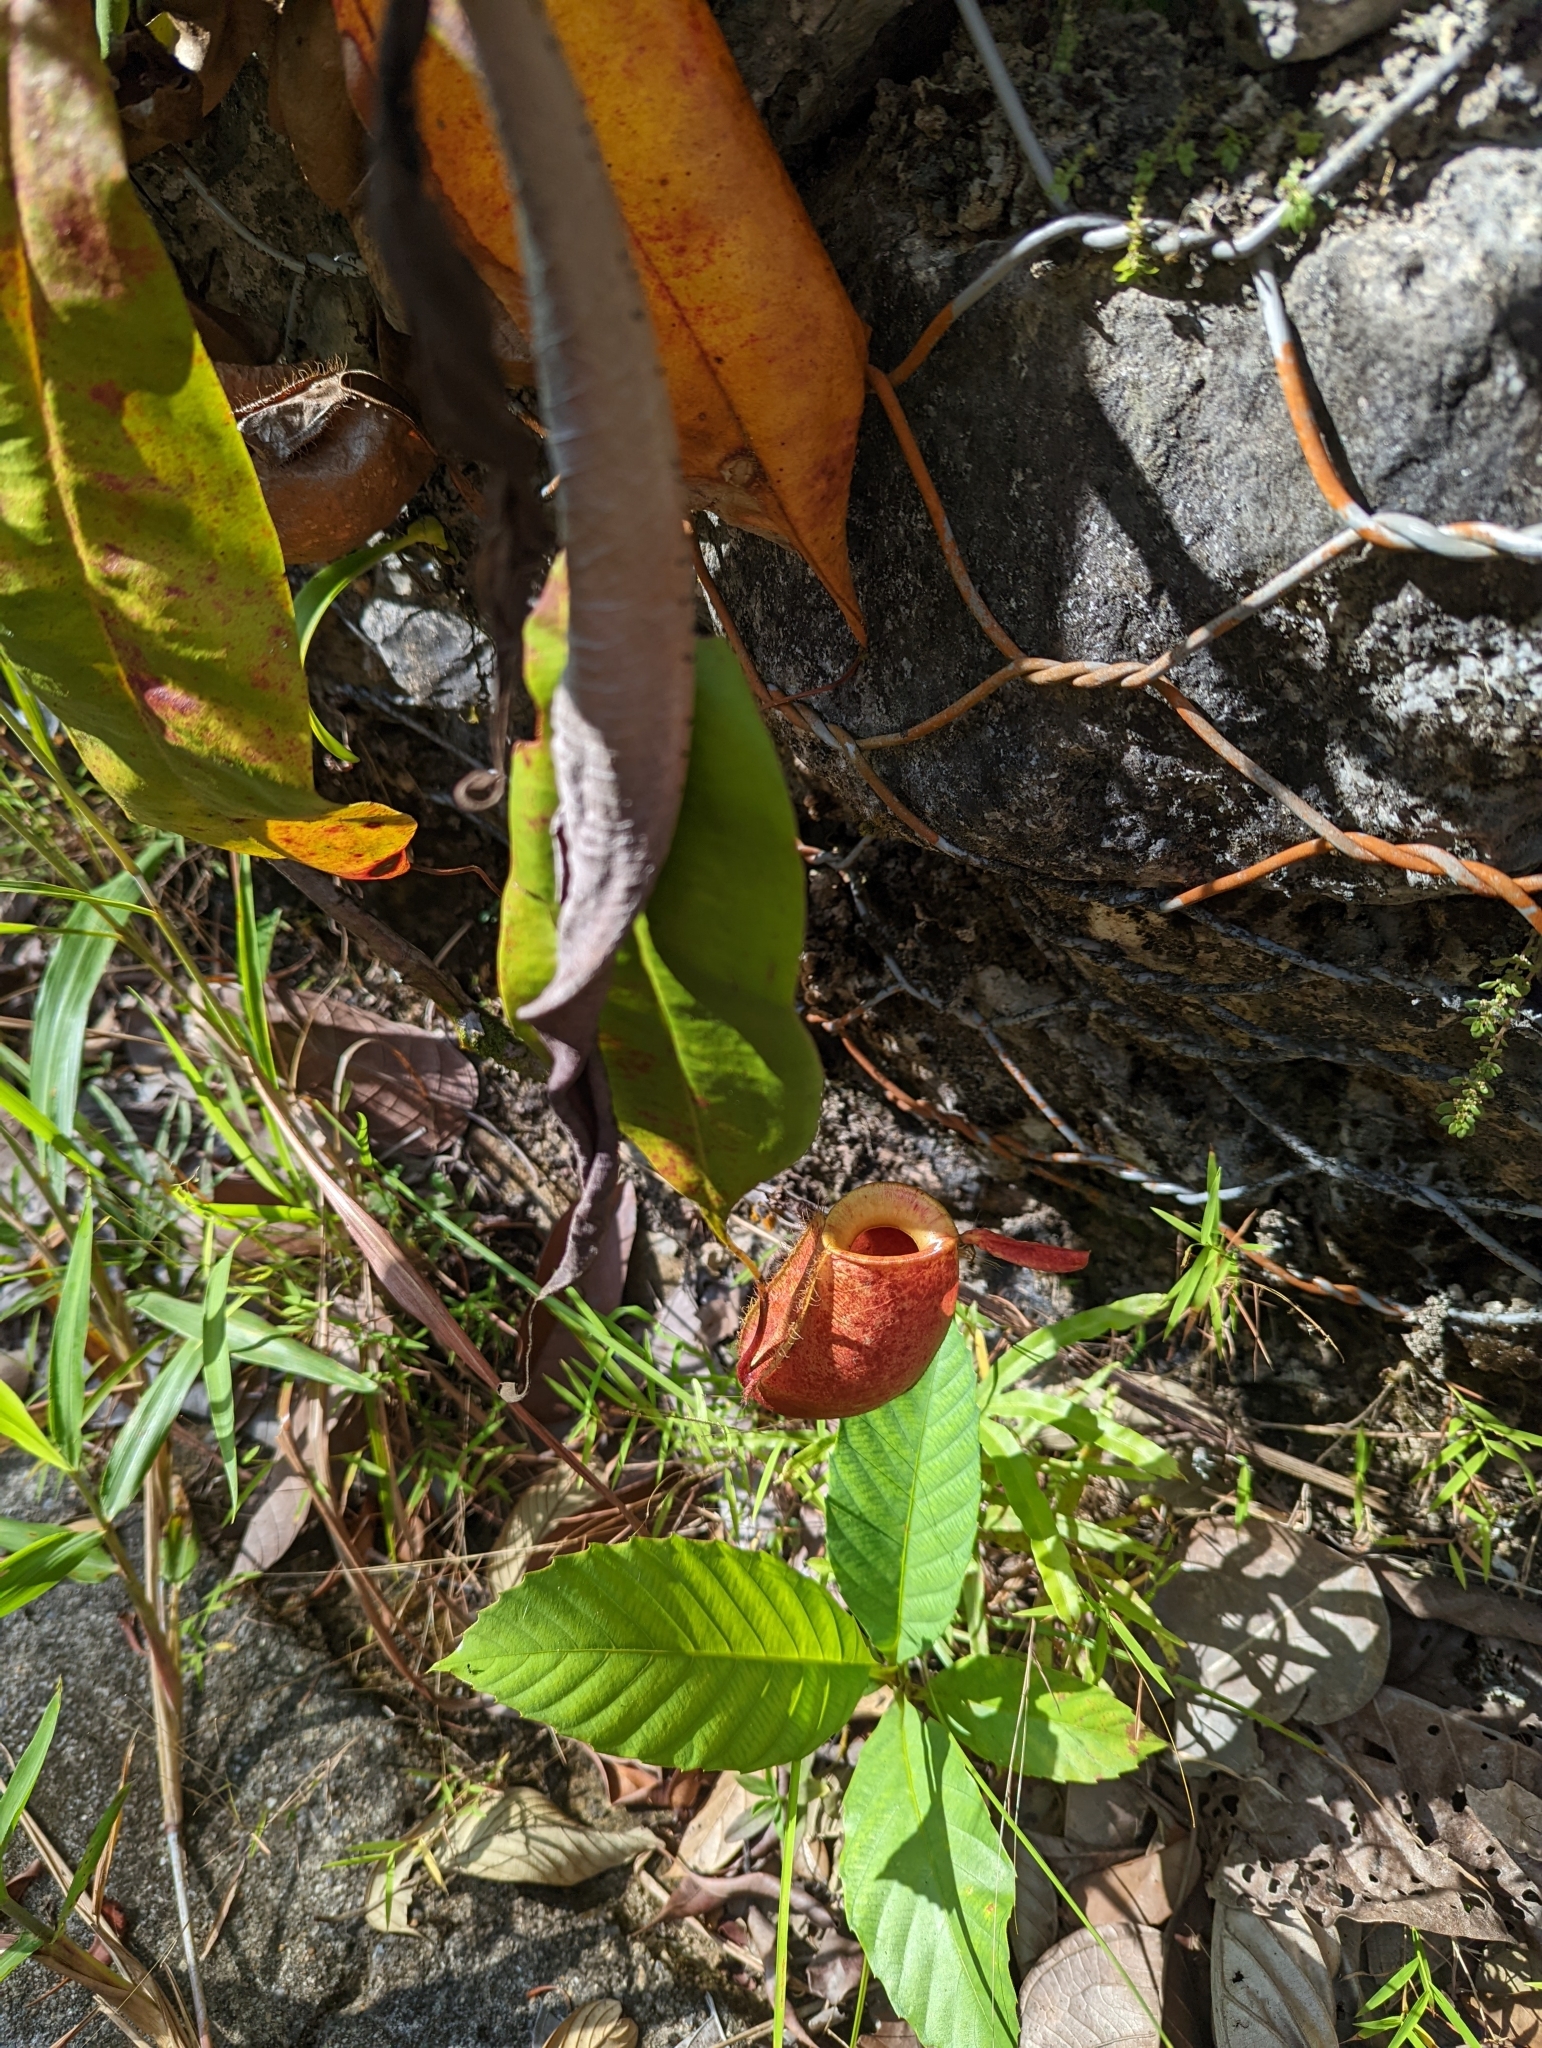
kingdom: Plantae
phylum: Tracheophyta
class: Magnoliopsida
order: Caryophyllales
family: Nepenthaceae
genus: Nepenthes
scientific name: Nepenthes ampullaria
